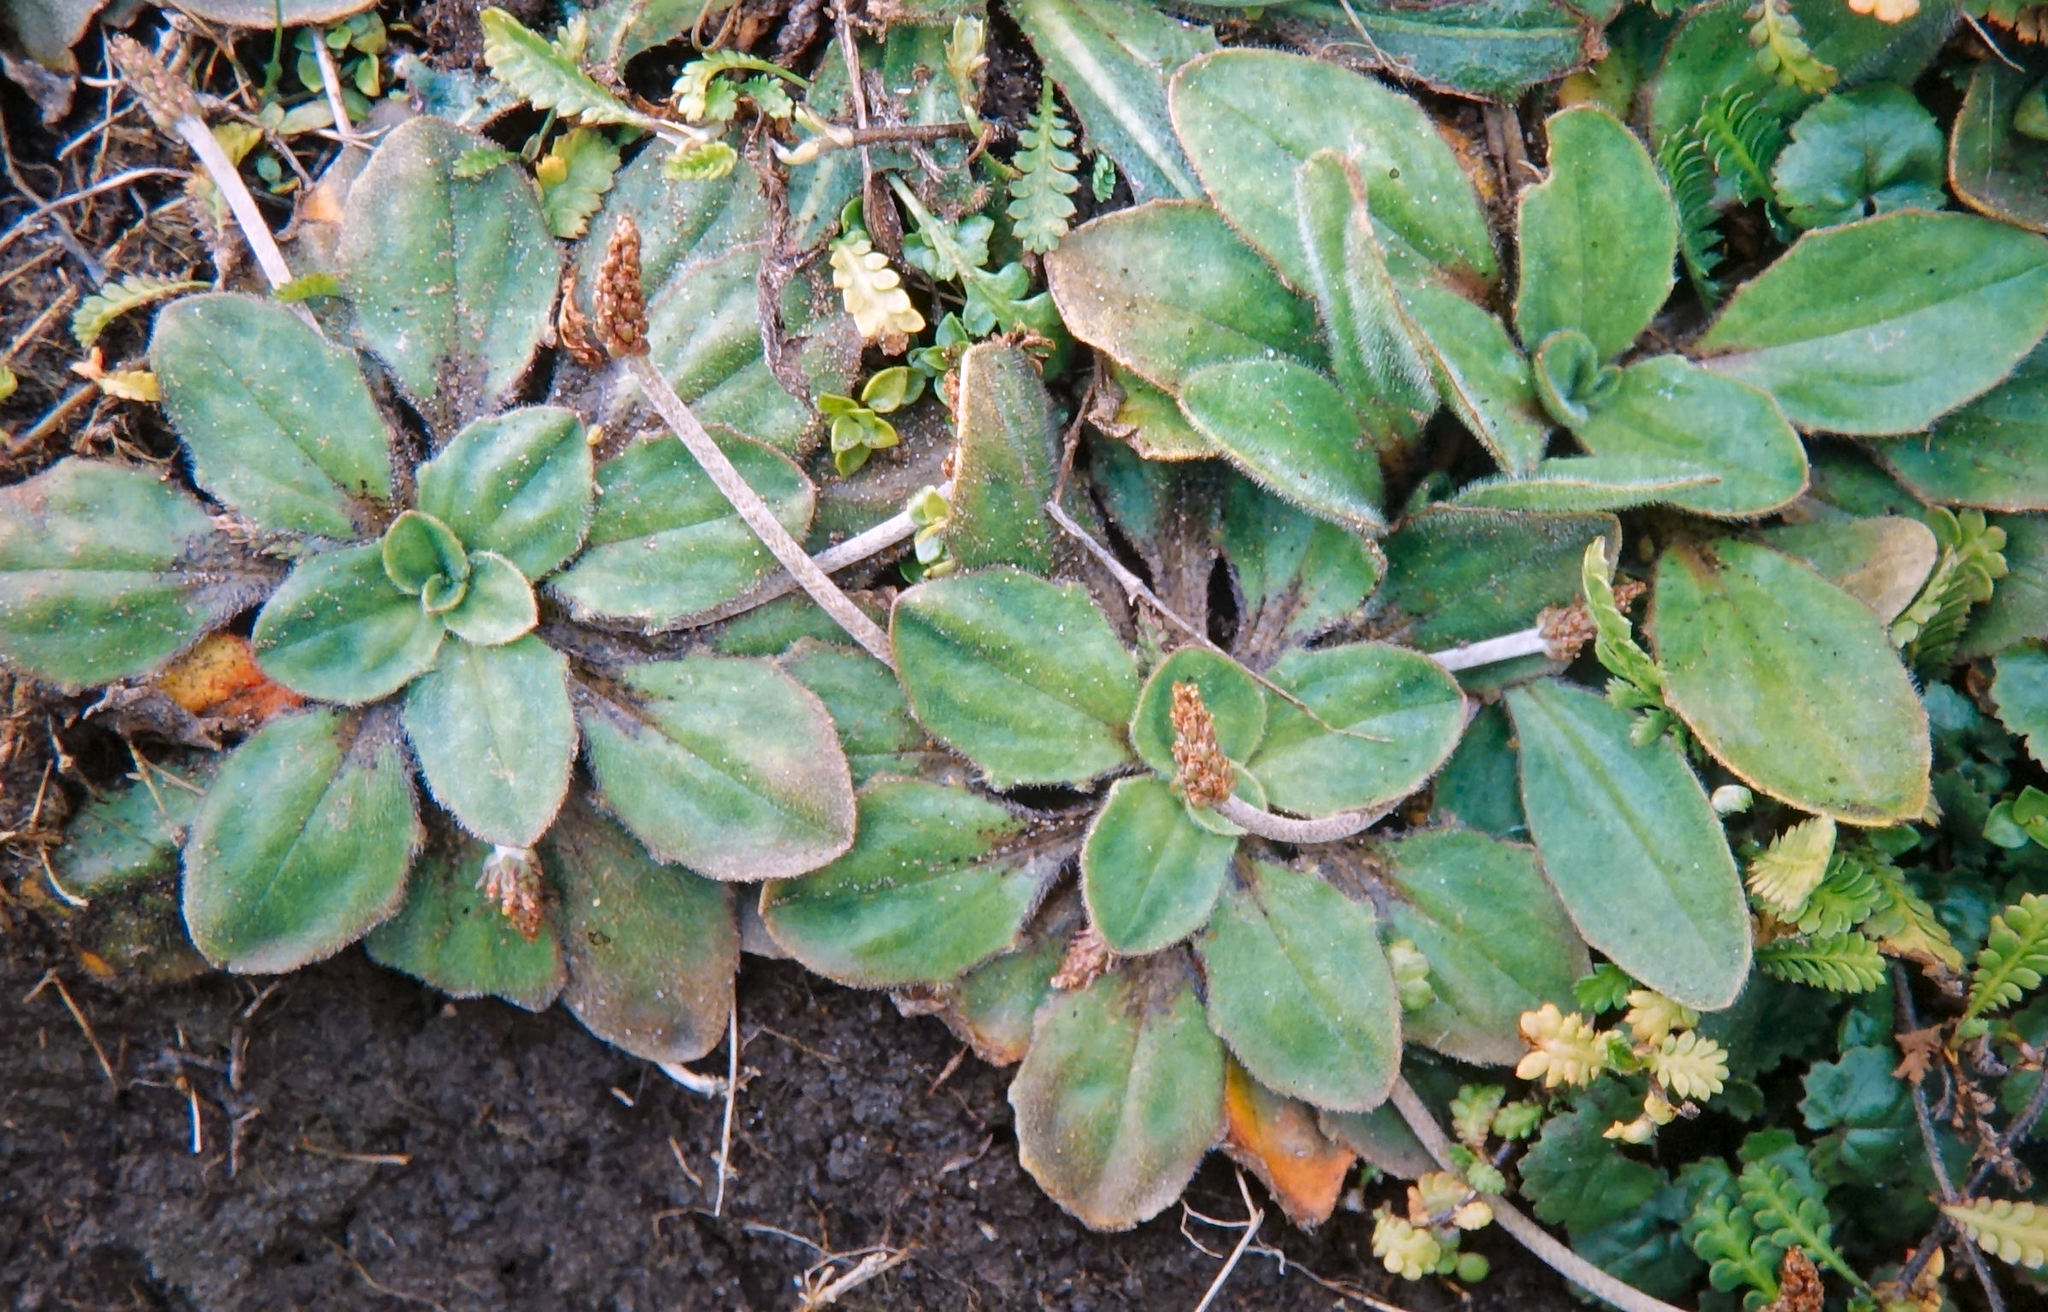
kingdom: Plantae
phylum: Tracheophyta
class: Magnoliopsida
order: Lamiales
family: Plantaginaceae
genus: Plantago
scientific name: Plantago raoulii
